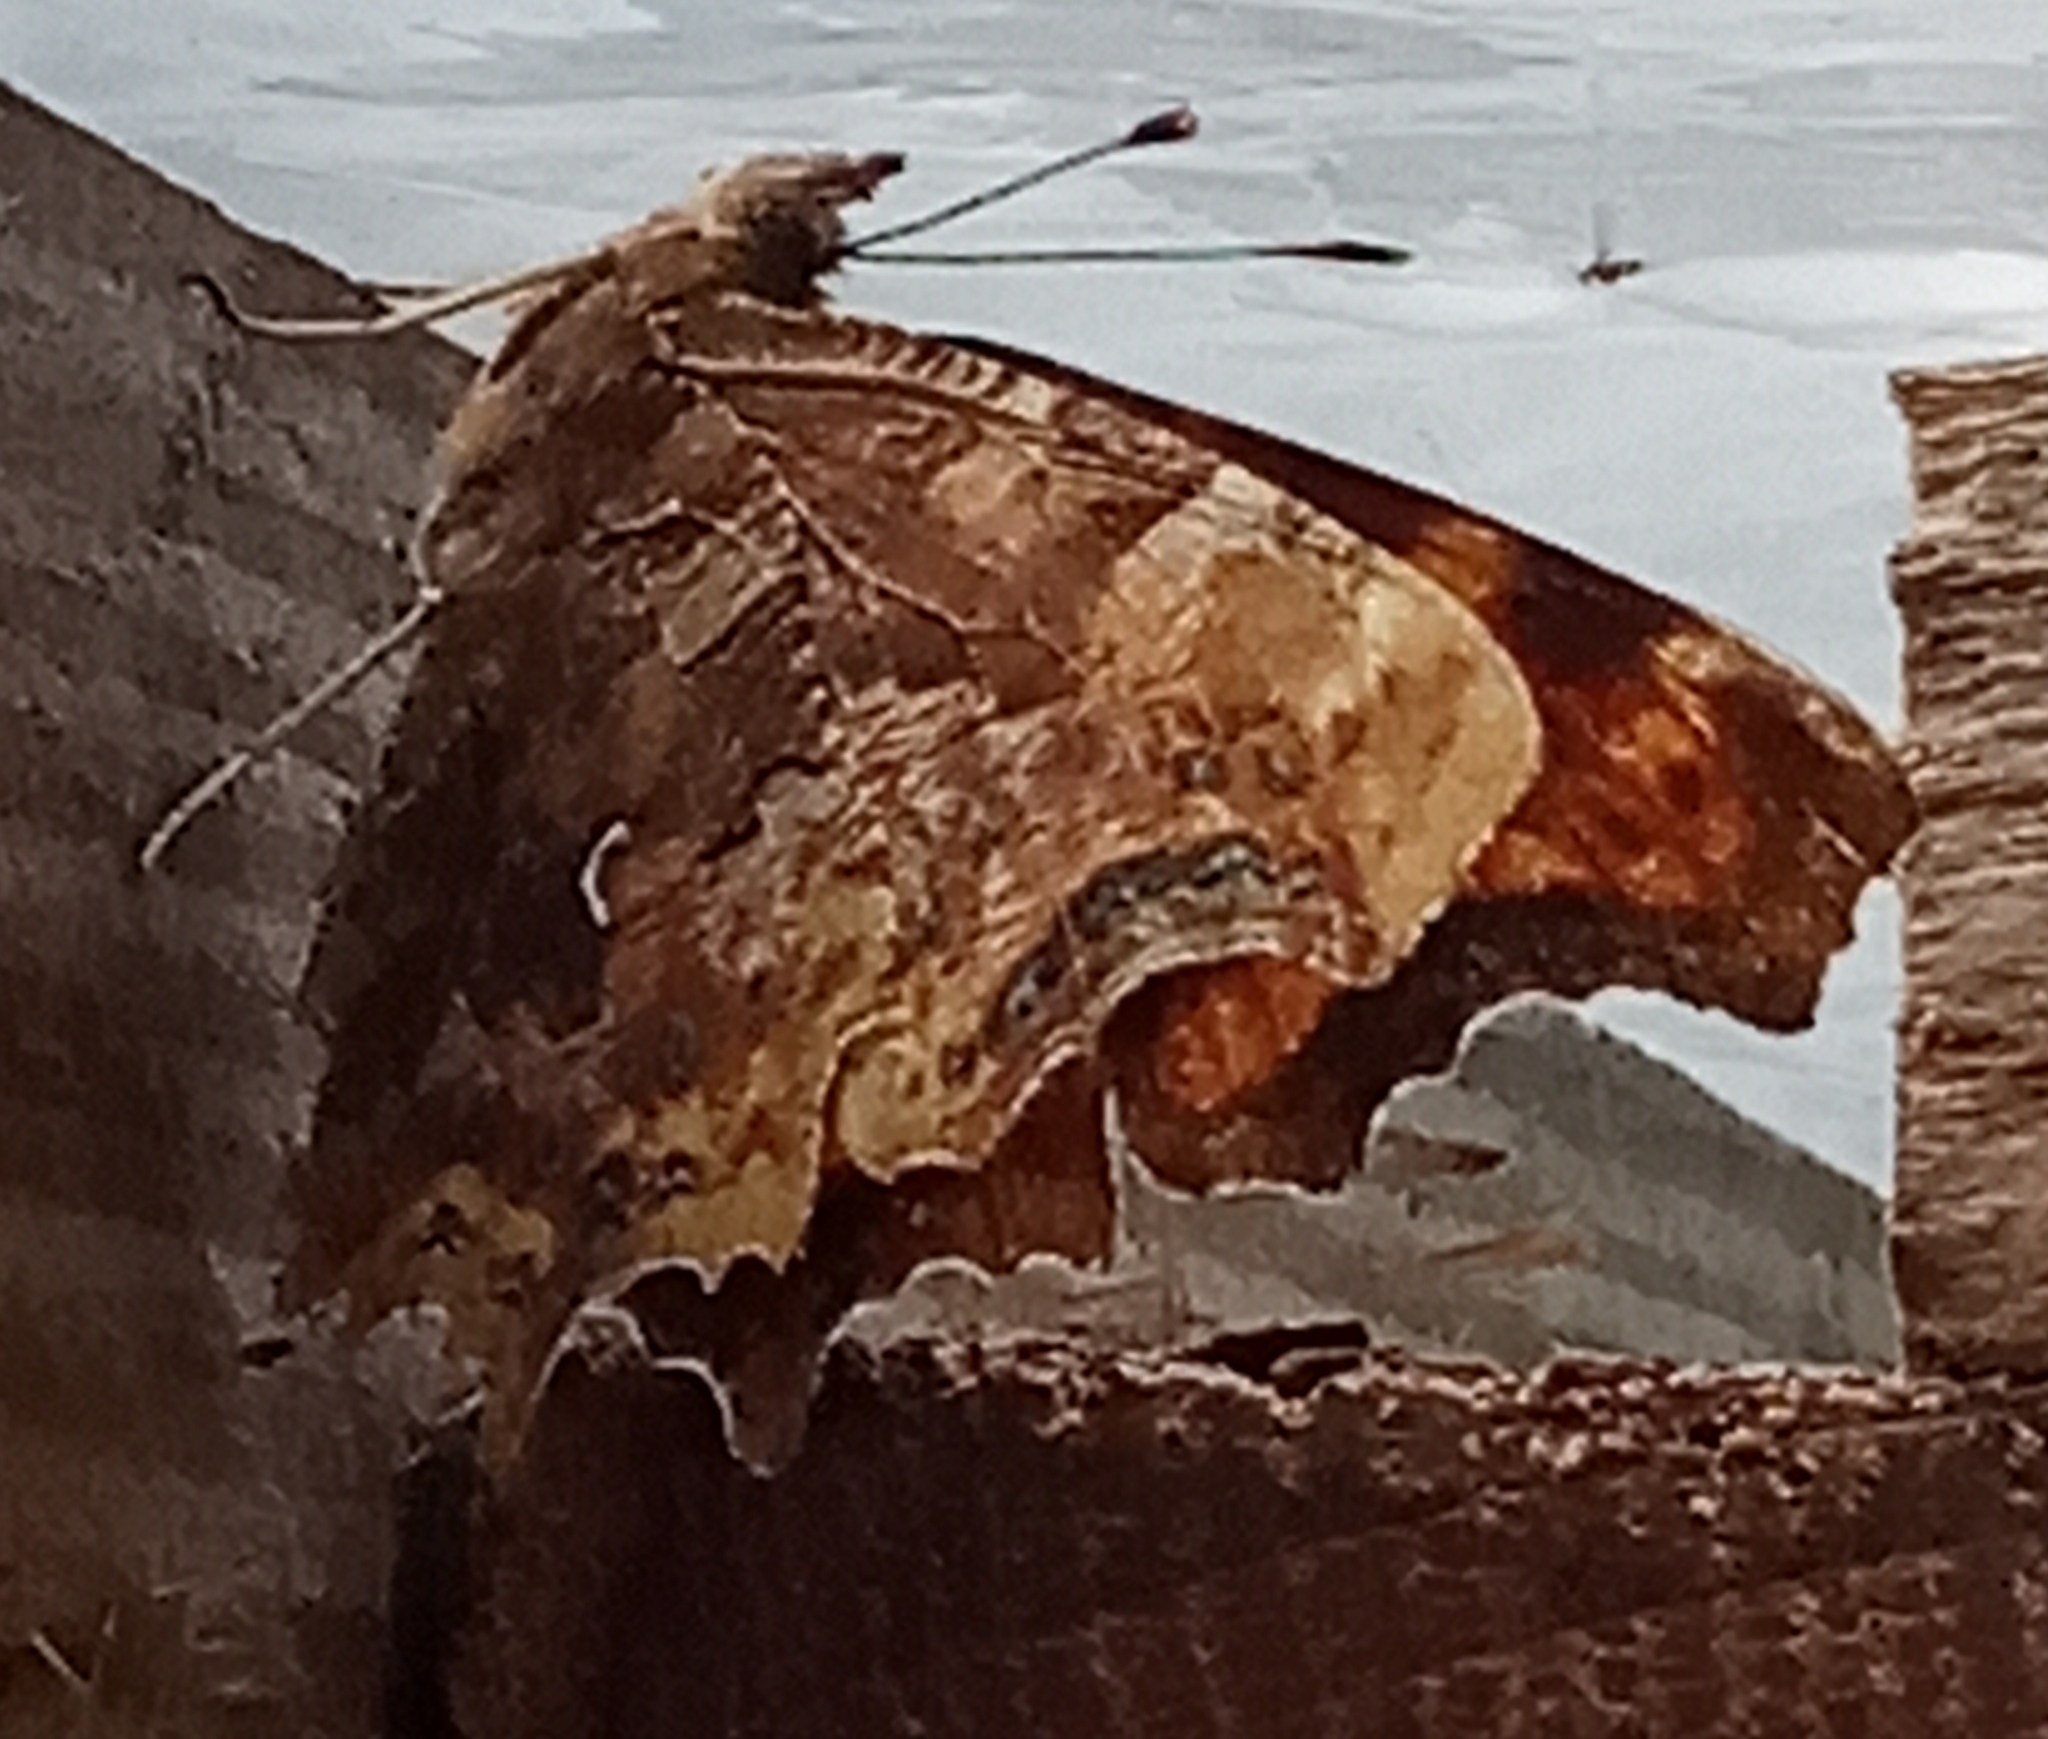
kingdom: Animalia
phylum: Arthropoda
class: Insecta
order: Lepidoptera
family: Nymphalidae
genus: Polygonia
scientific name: Polygonia c-album
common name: Comma
